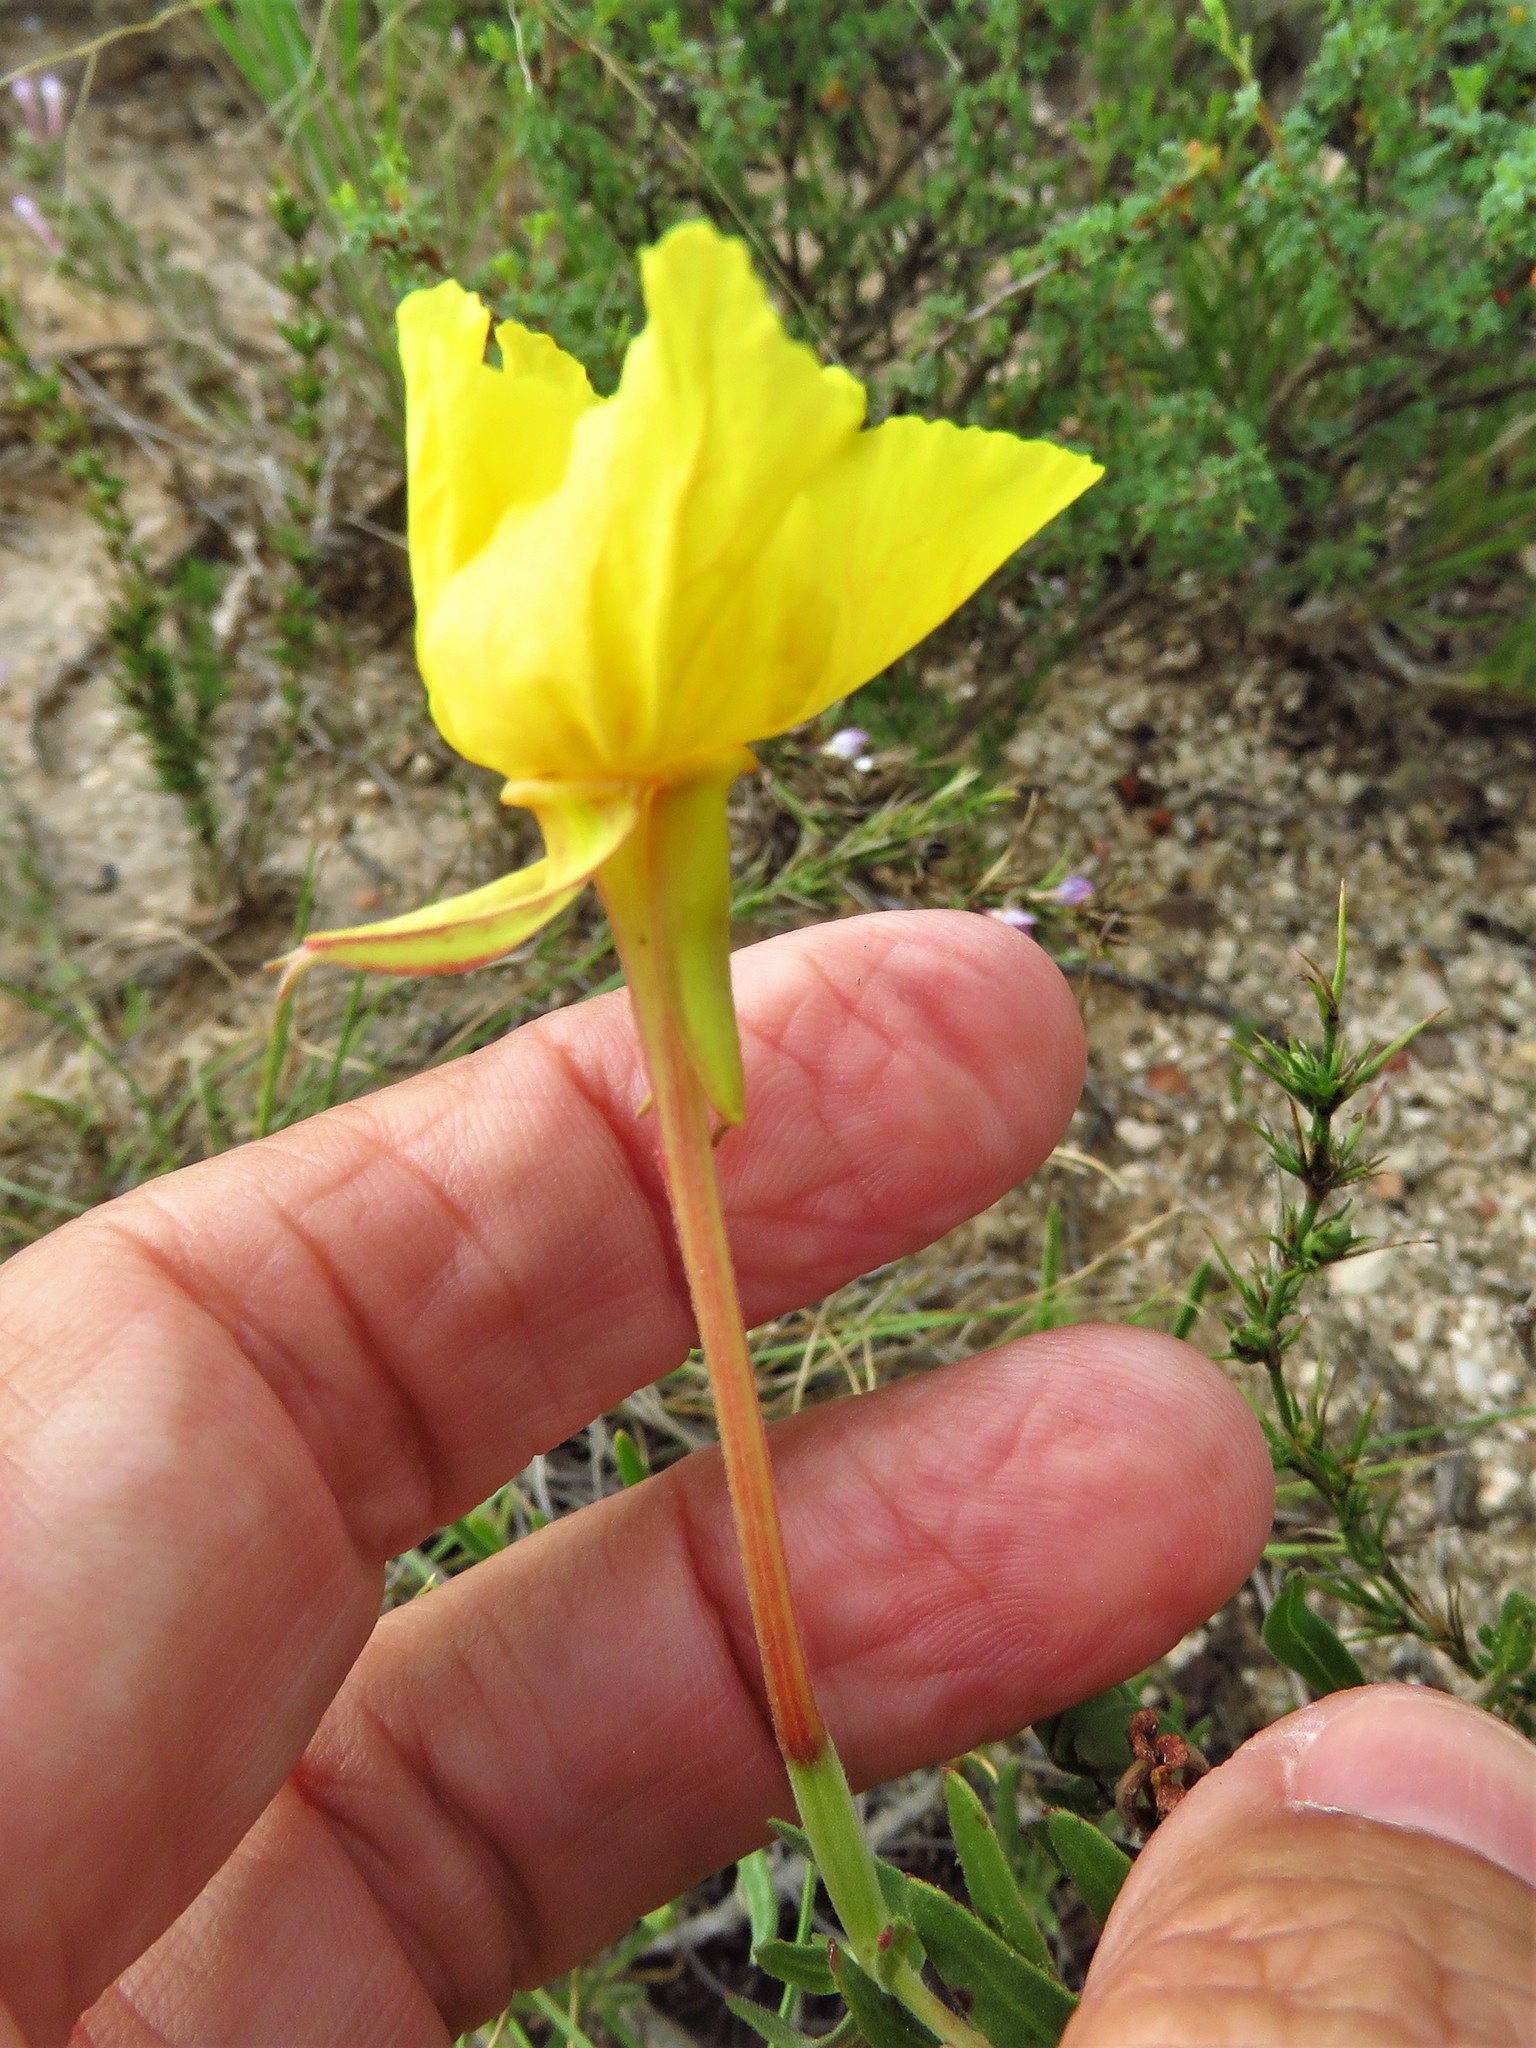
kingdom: Plantae
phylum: Tracheophyta
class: Magnoliopsida
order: Myrtales
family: Onagraceae
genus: Oenothera
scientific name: Oenothera hartwegii
